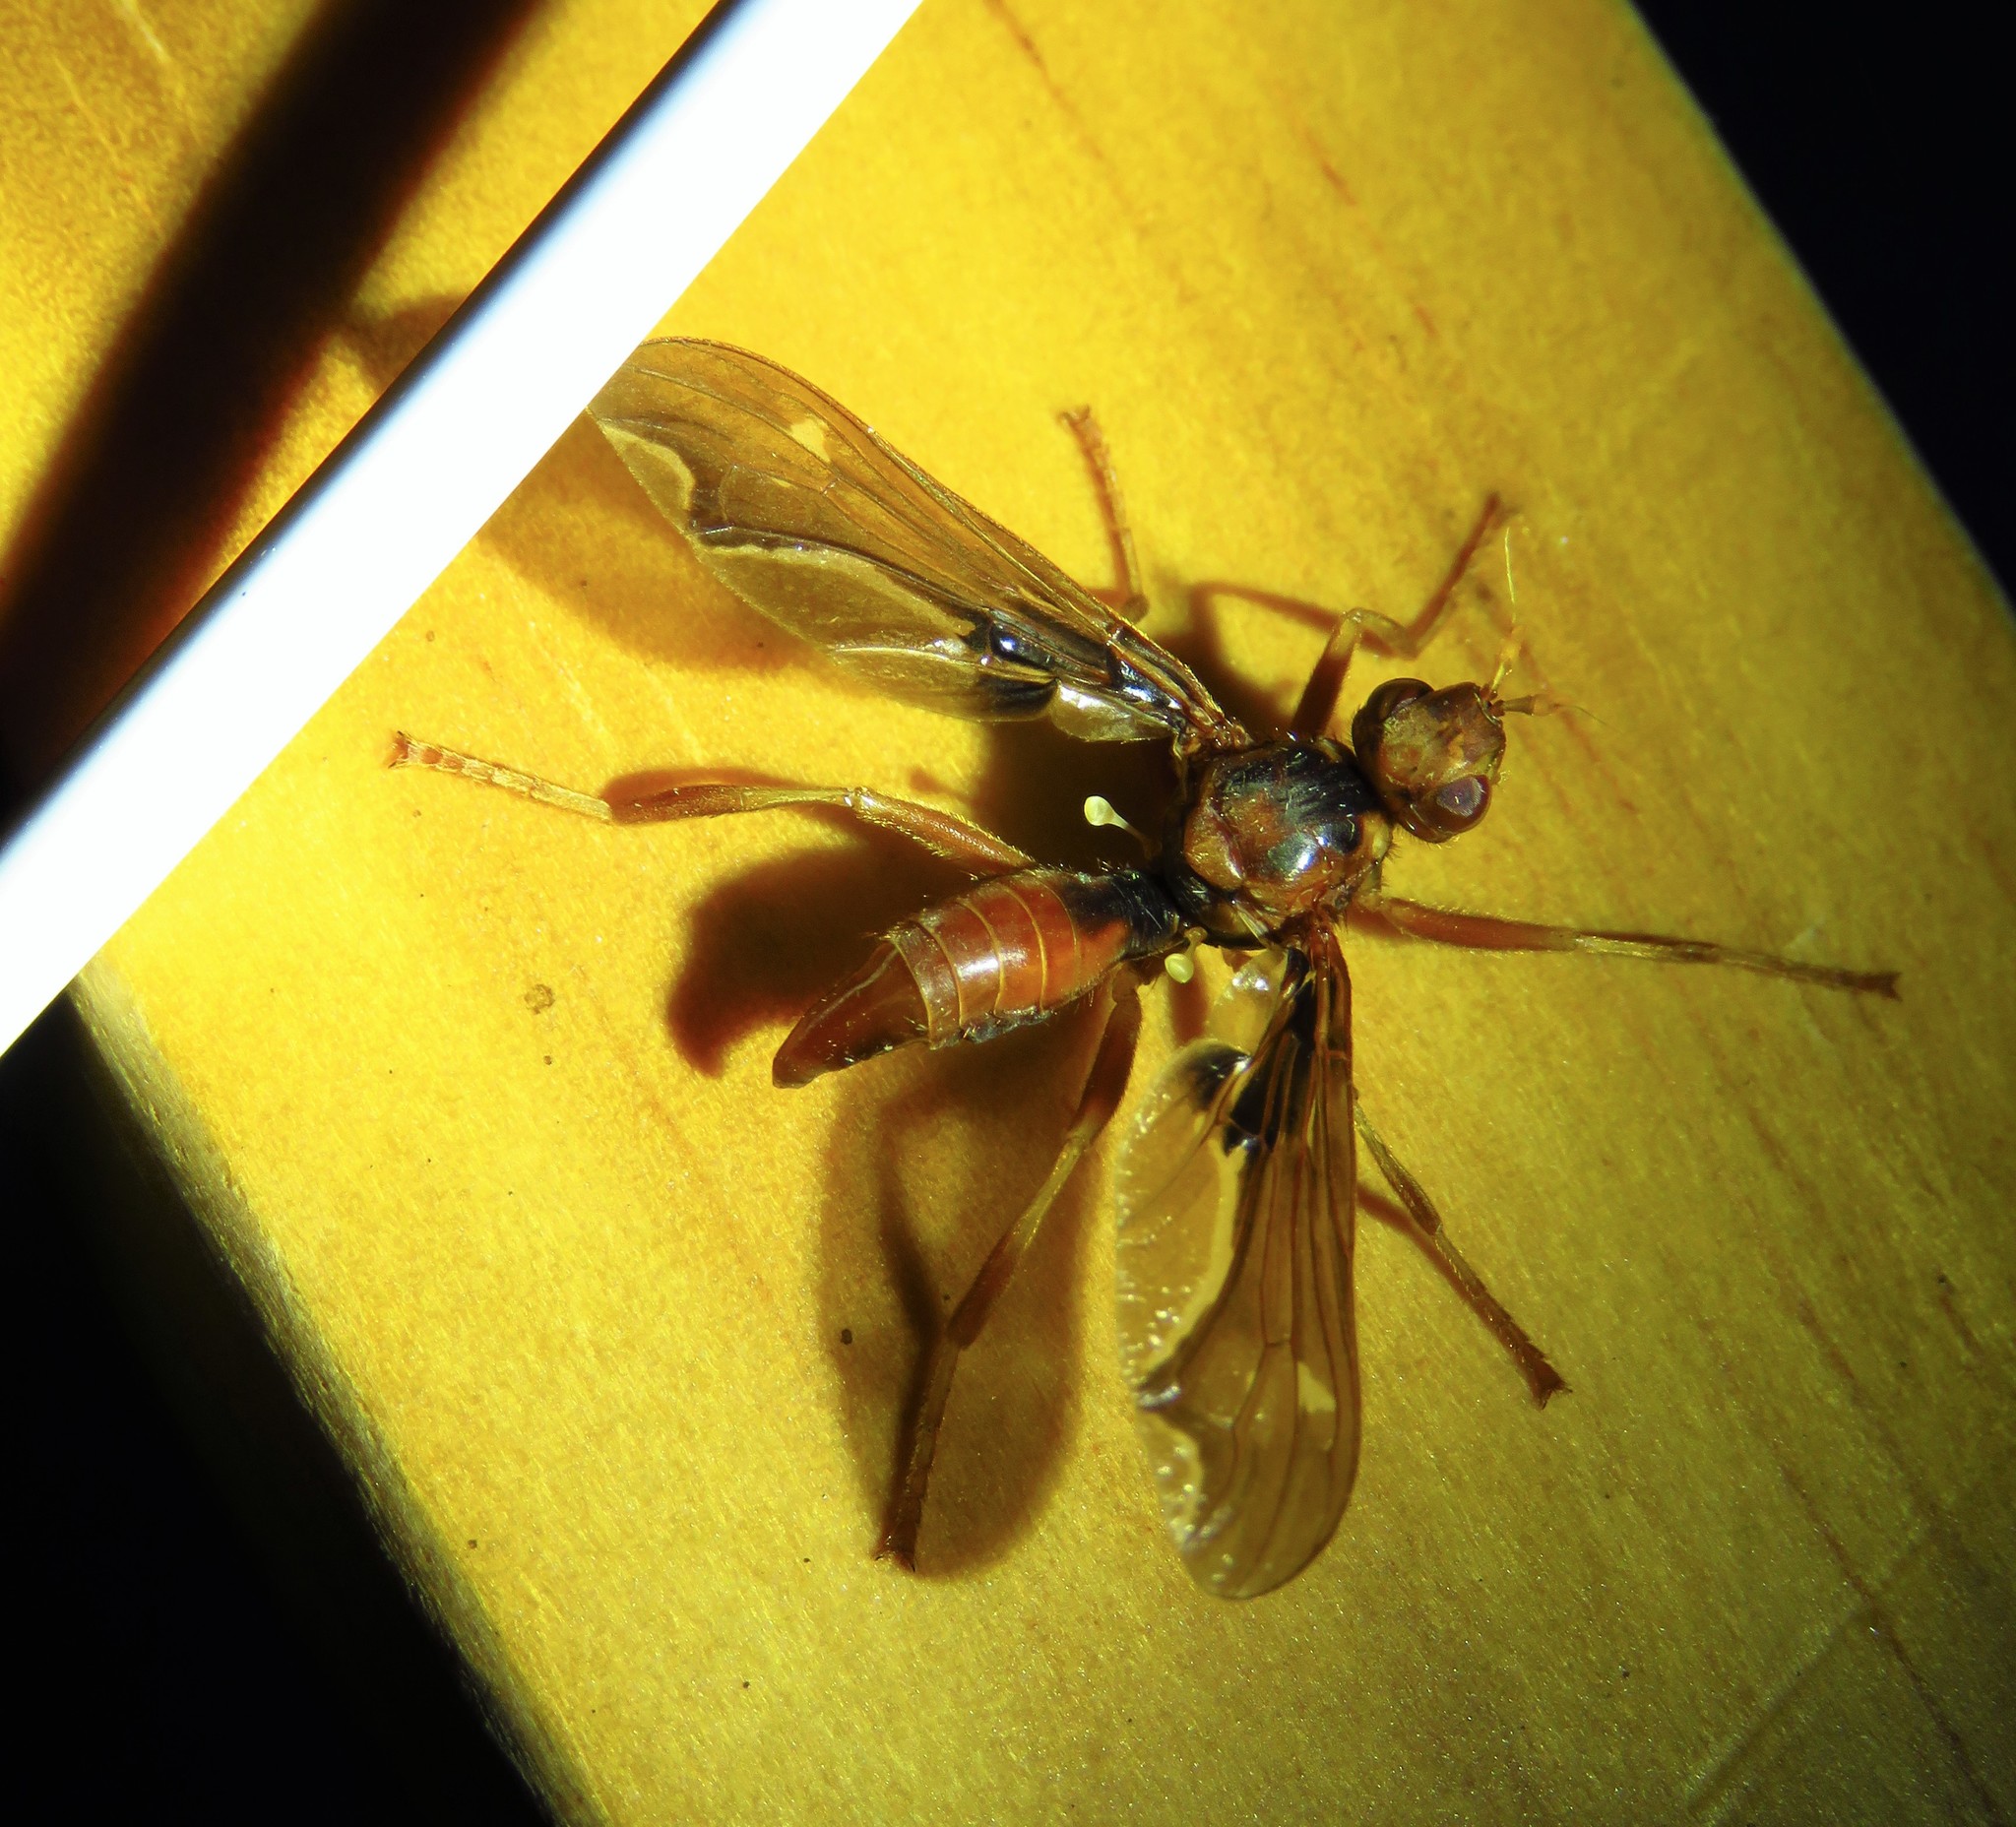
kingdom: Animalia
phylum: Arthropoda
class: Insecta
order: Diptera
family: Pyrgotidae
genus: Pyrgota
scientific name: Pyrgota undata
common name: Waved light fly
